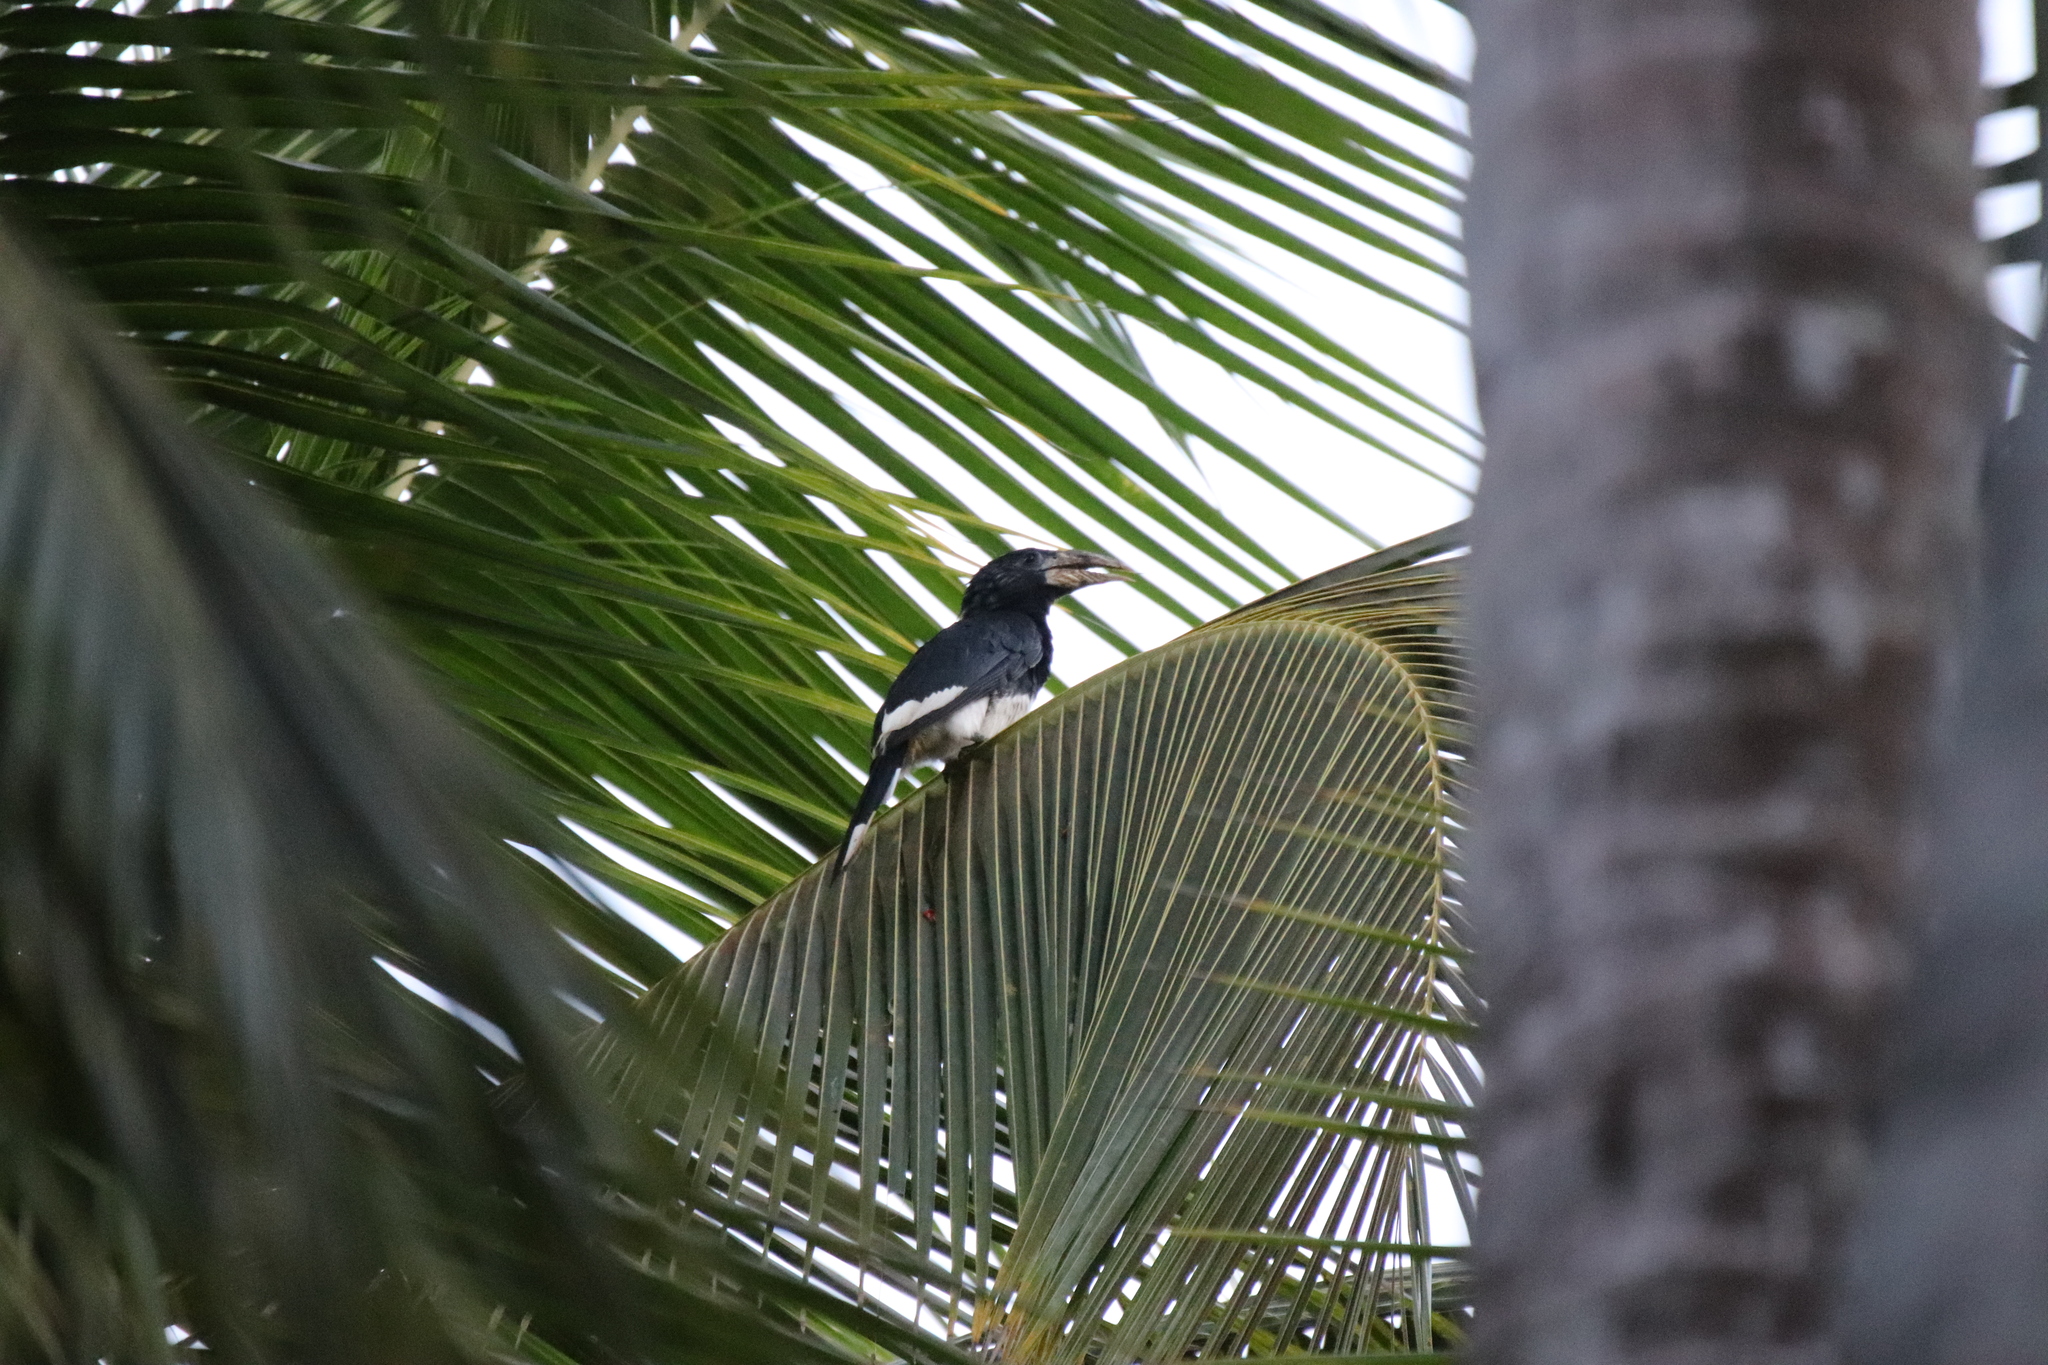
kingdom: Animalia
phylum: Chordata
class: Aves
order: Bucerotiformes
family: Bucerotidae
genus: Bycanistes
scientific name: Bycanistes fistulator
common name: Piping hornbill
